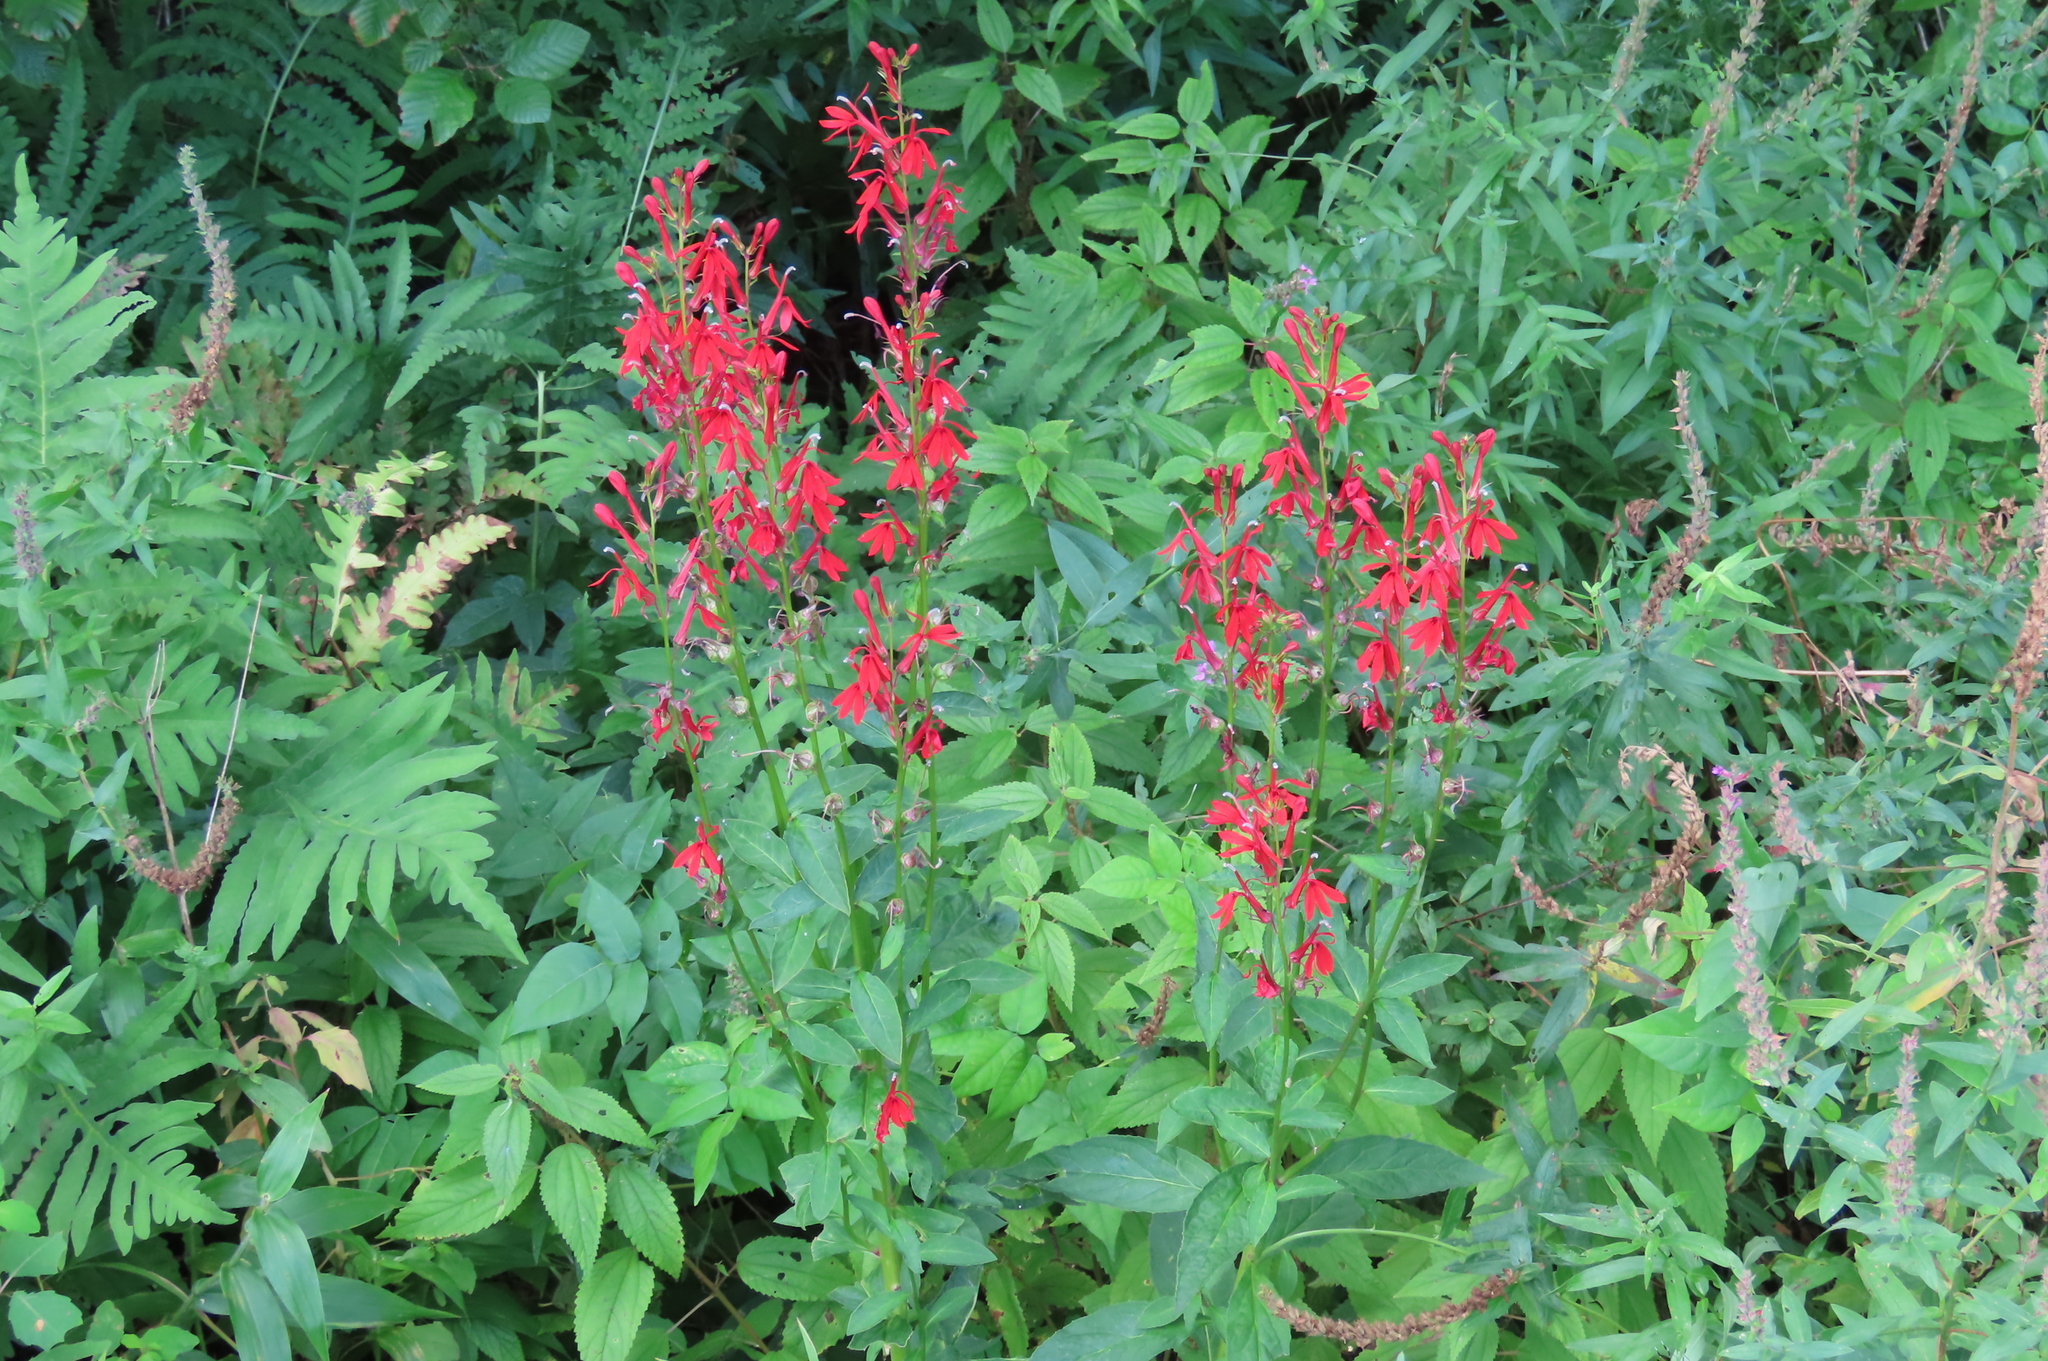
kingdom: Plantae
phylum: Tracheophyta
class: Magnoliopsida
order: Asterales
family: Campanulaceae
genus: Lobelia
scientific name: Lobelia cardinalis
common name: Cardinal flower
